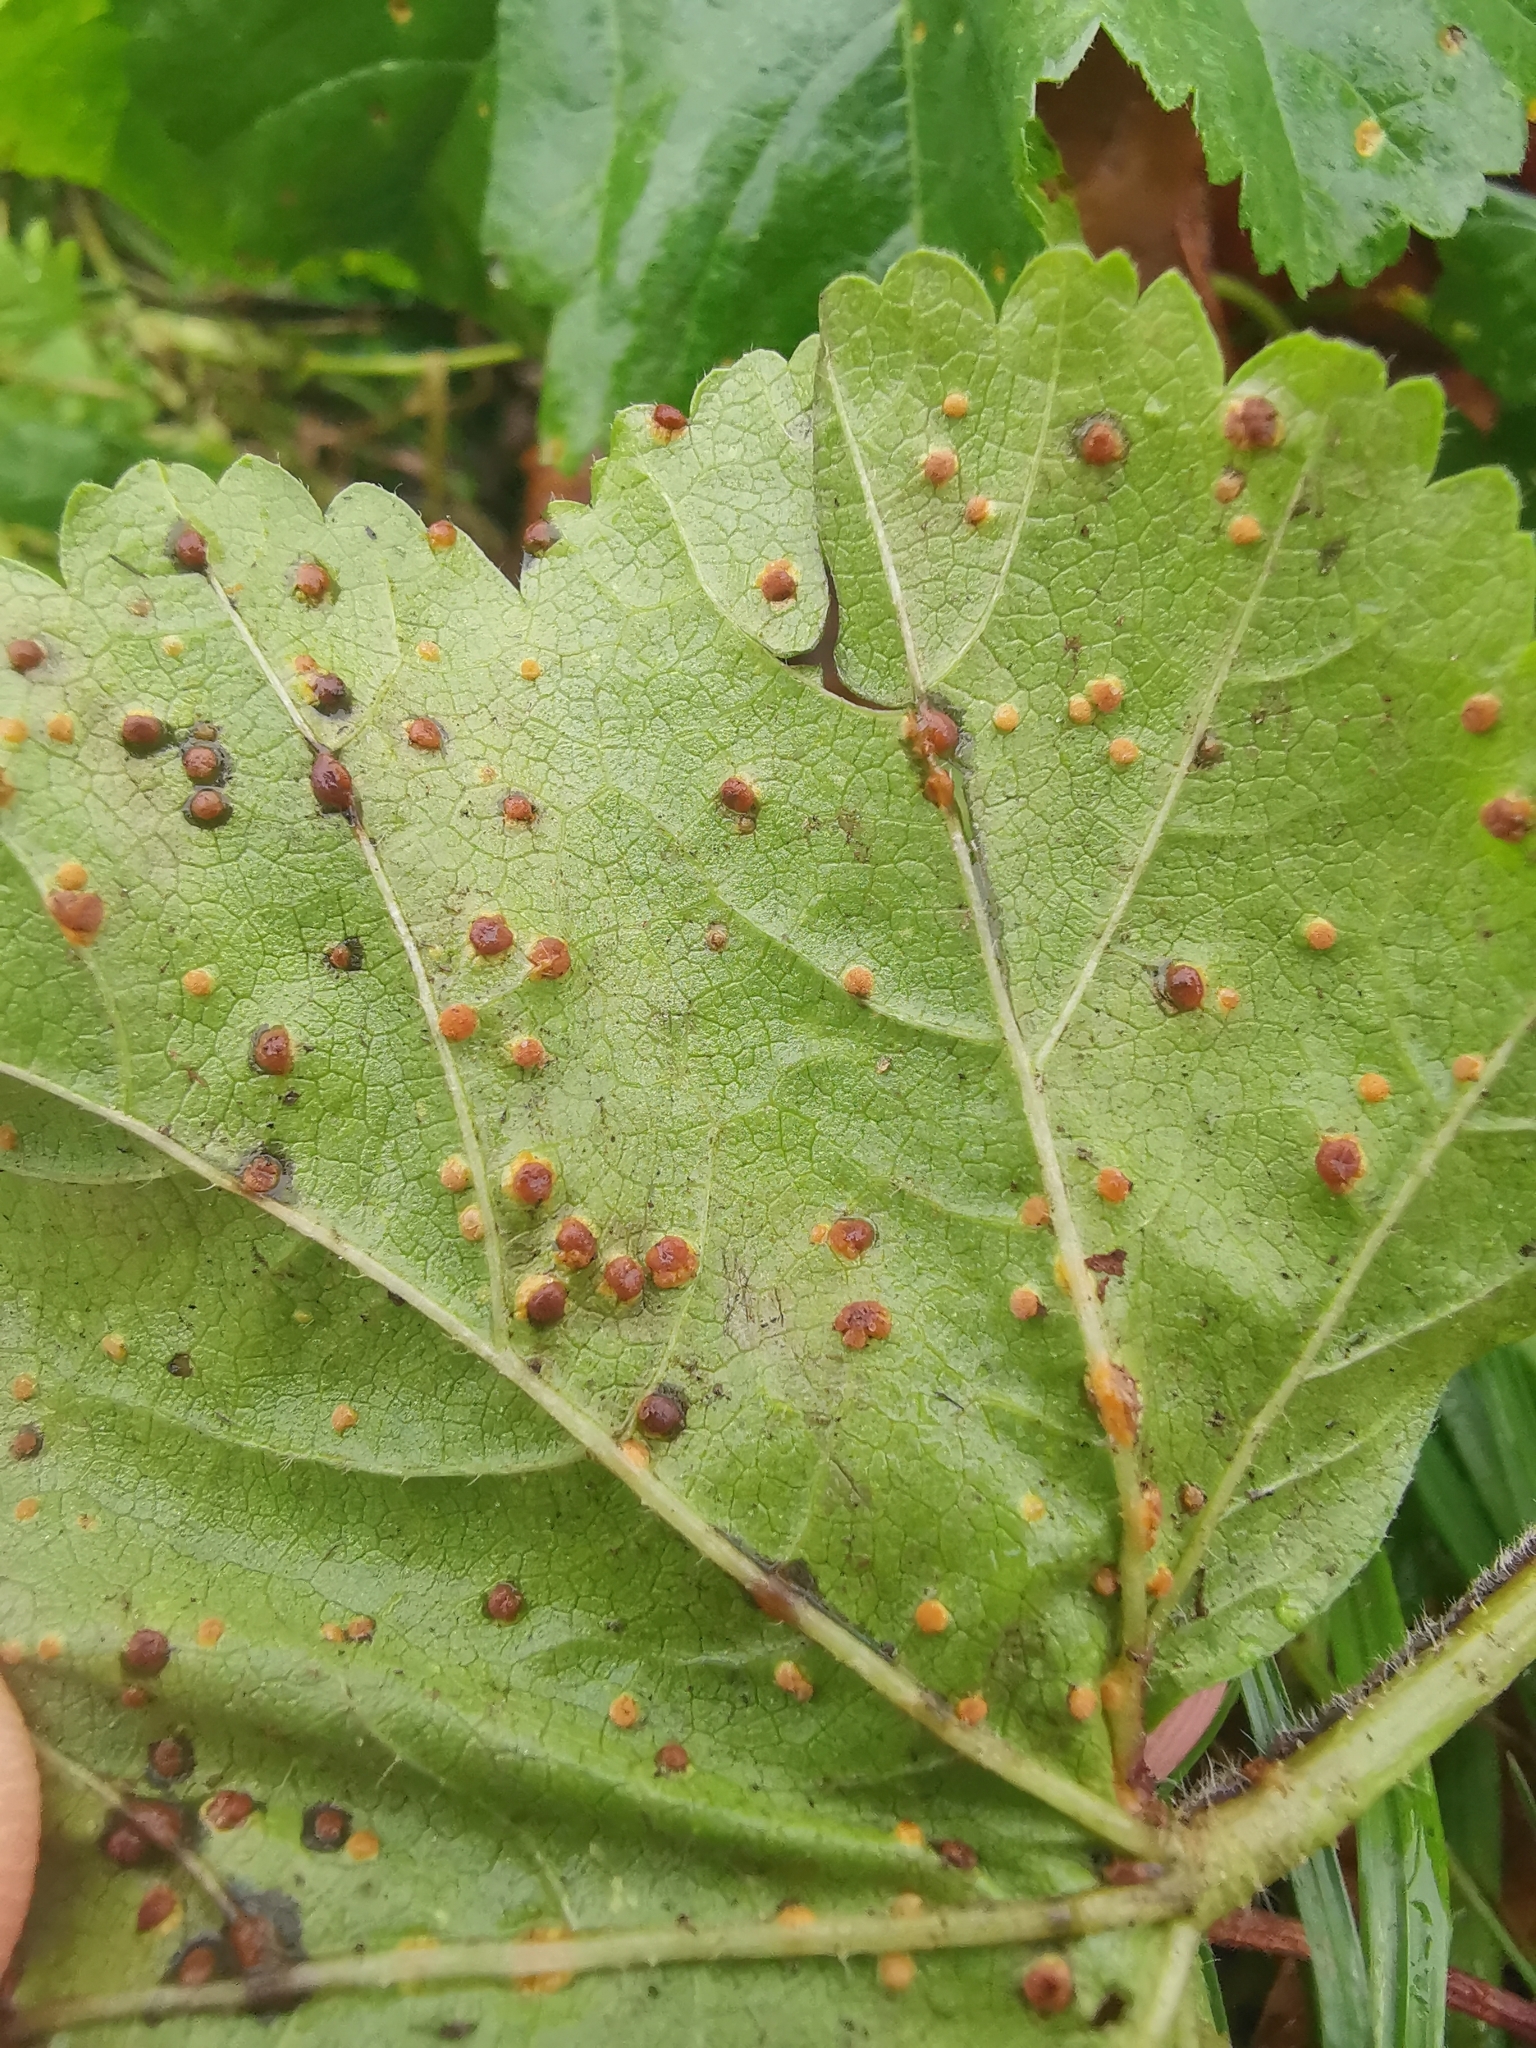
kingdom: Fungi
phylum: Basidiomycota
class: Pucciniomycetes
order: Pucciniales
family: Pucciniaceae
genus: Puccinia
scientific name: Puccinia malvacearum
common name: Hollyhock rust
